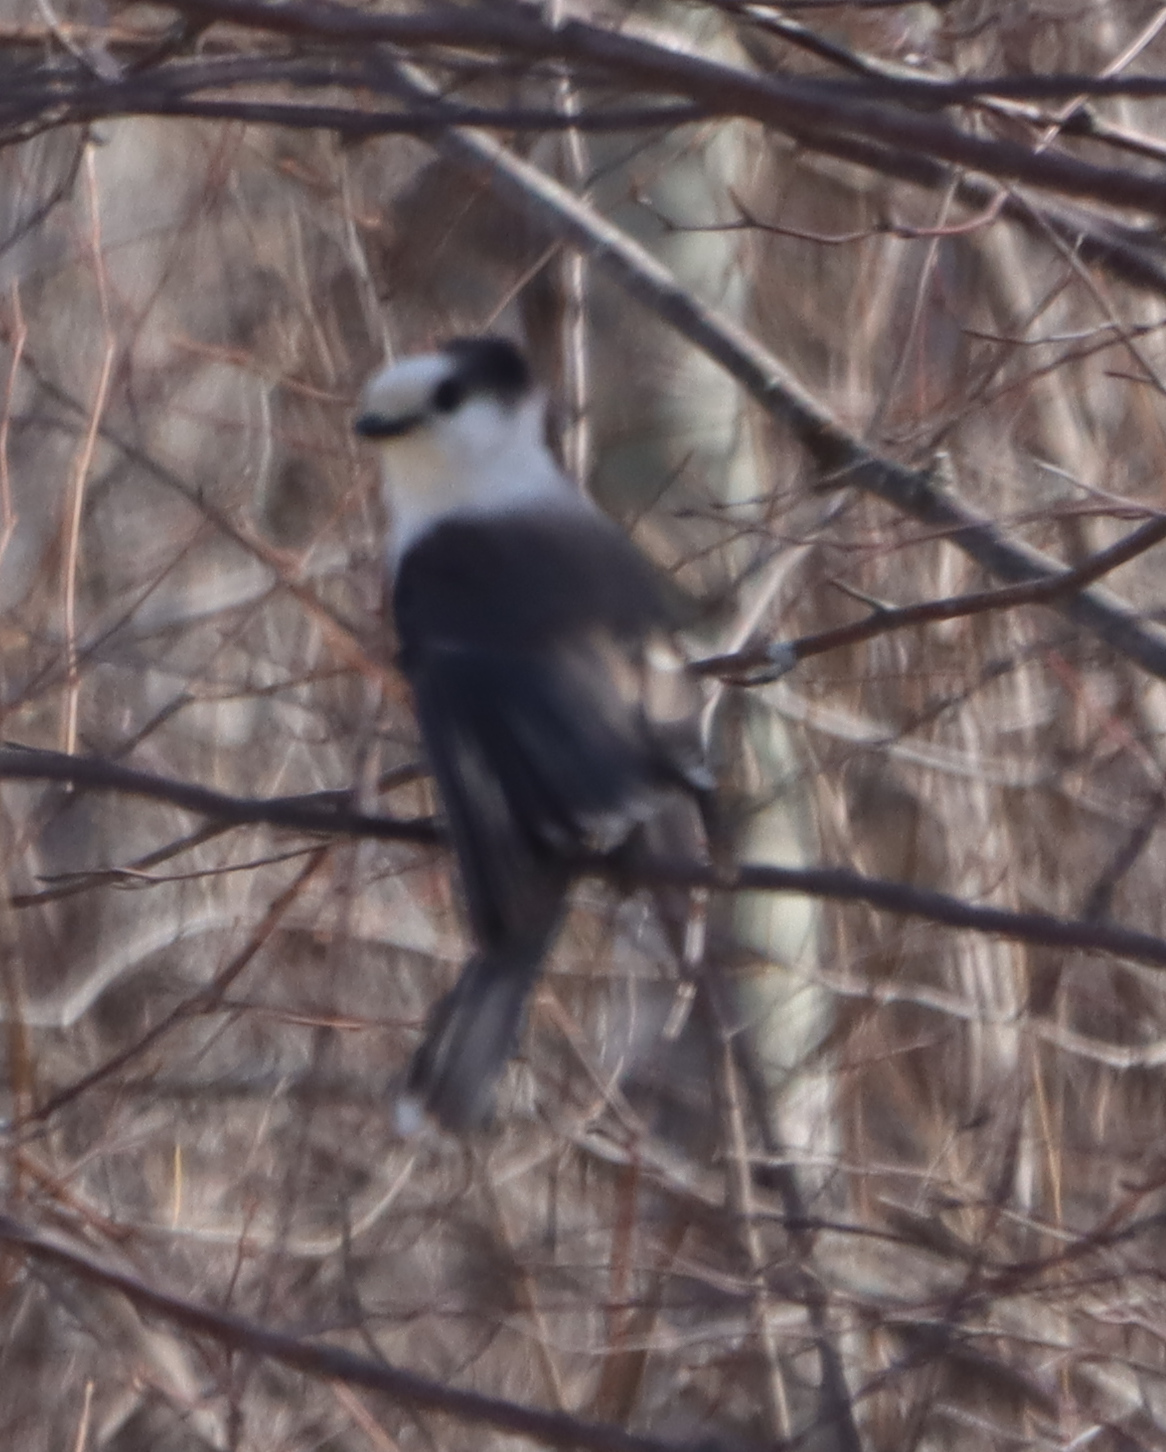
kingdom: Animalia
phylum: Chordata
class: Aves
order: Passeriformes
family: Corvidae
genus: Perisoreus
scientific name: Perisoreus canadensis
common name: Gray jay
